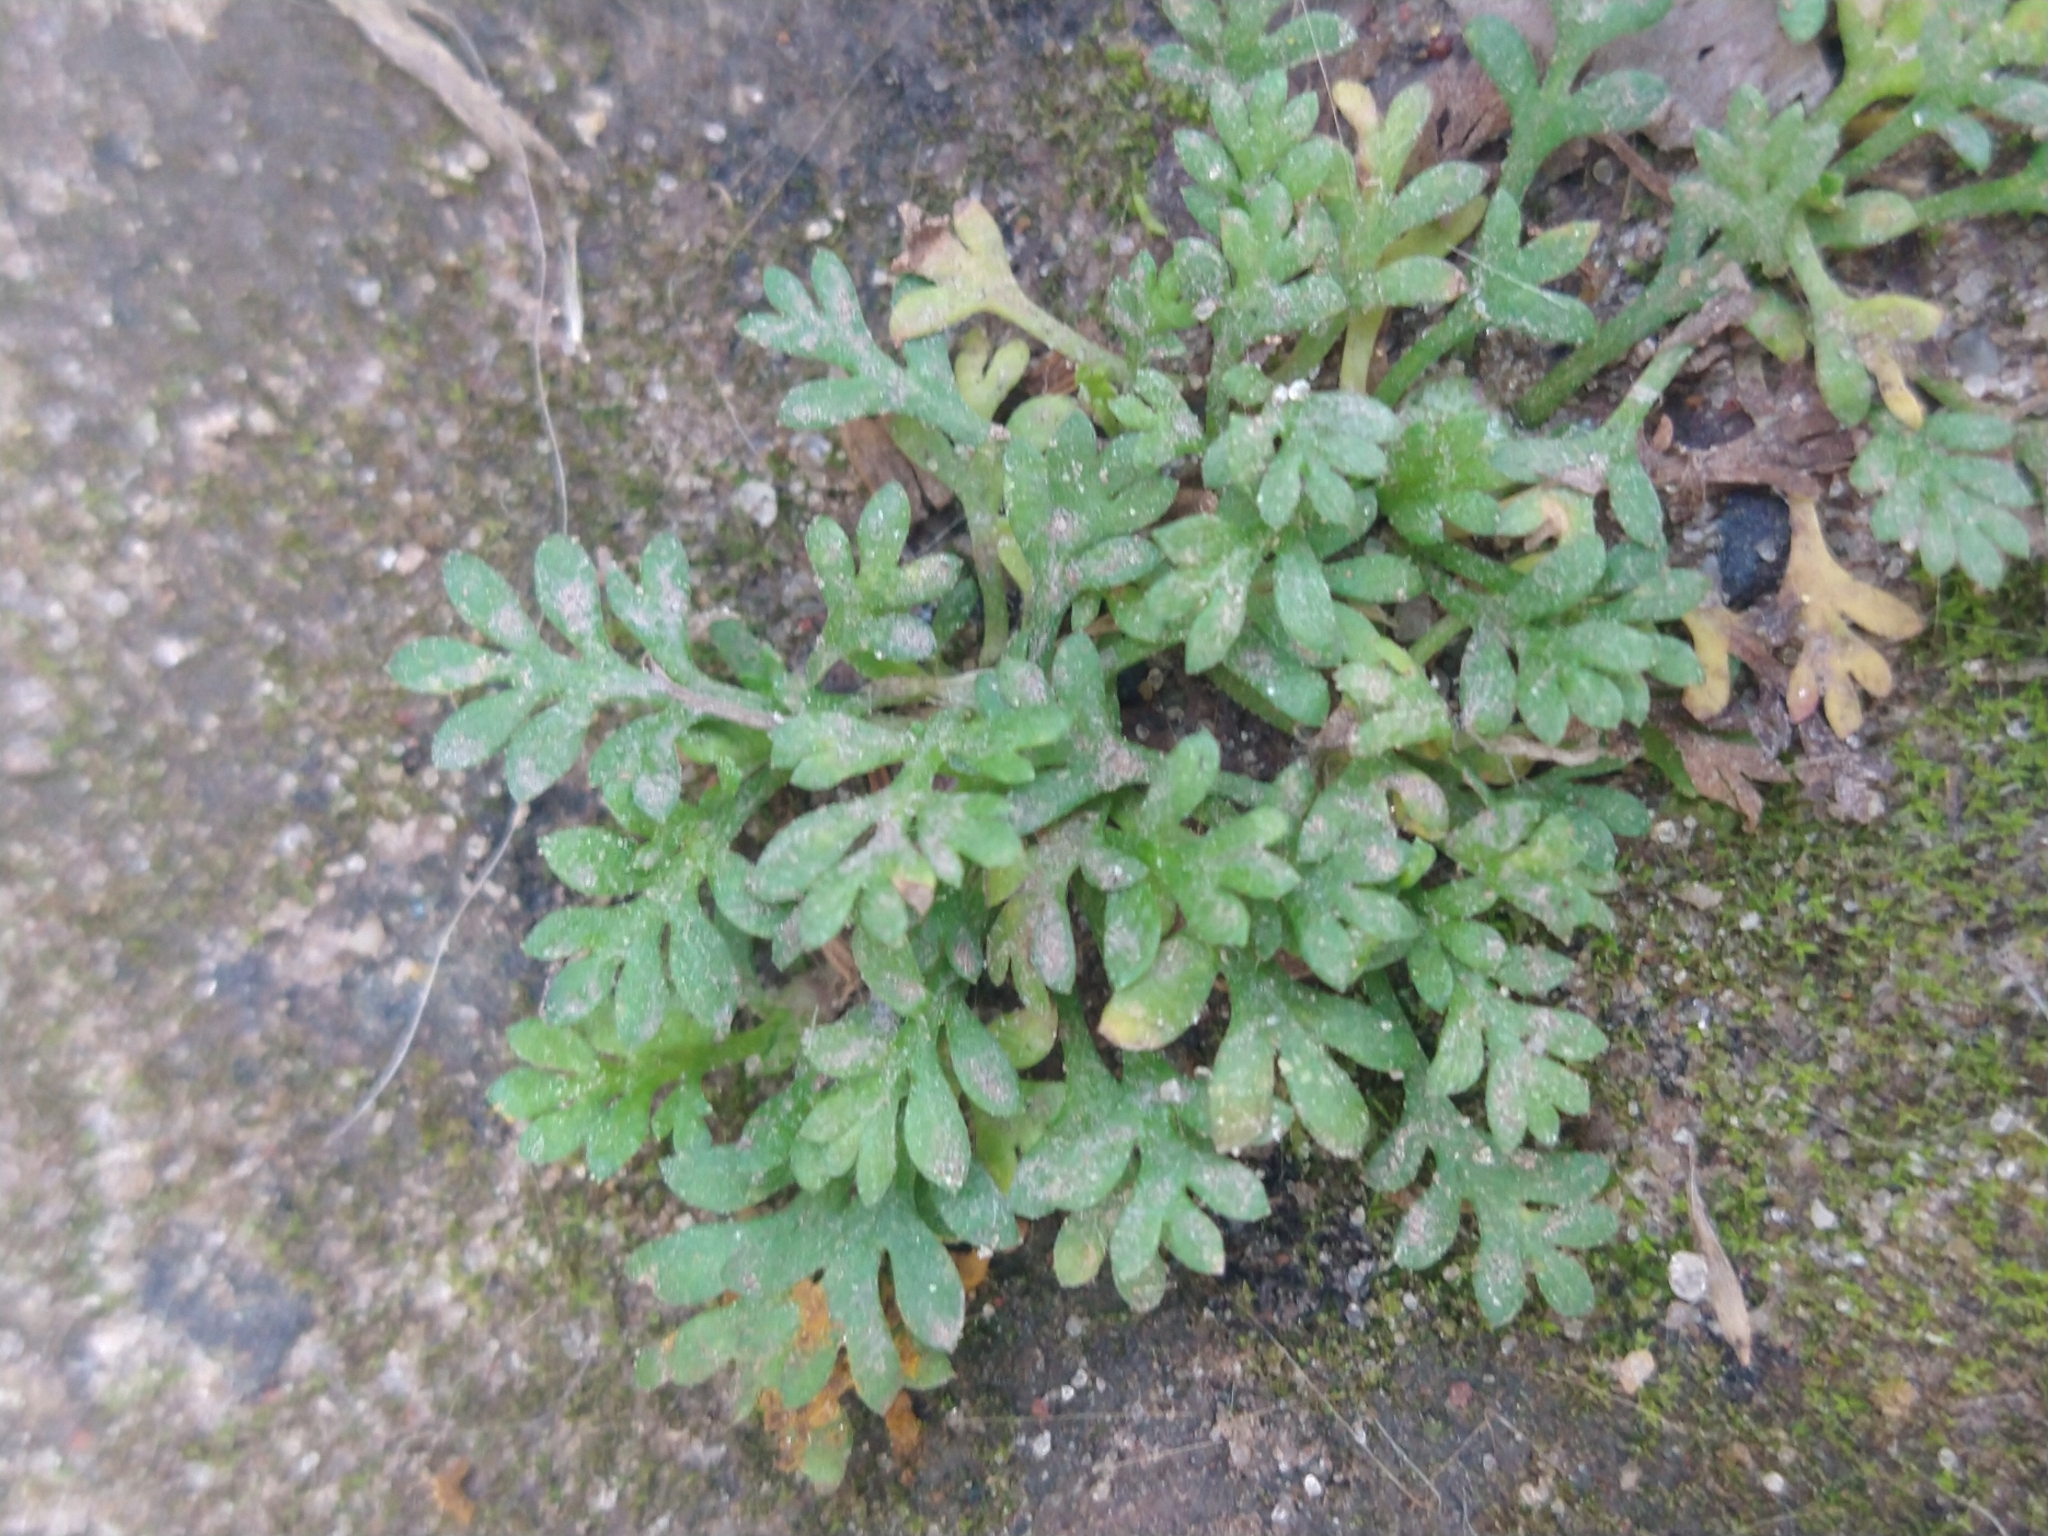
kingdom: Plantae
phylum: Tracheophyta
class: Magnoliopsida
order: Asterales
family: Asteraceae
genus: Cotula
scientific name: Cotula australis
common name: Australian waterbuttons
